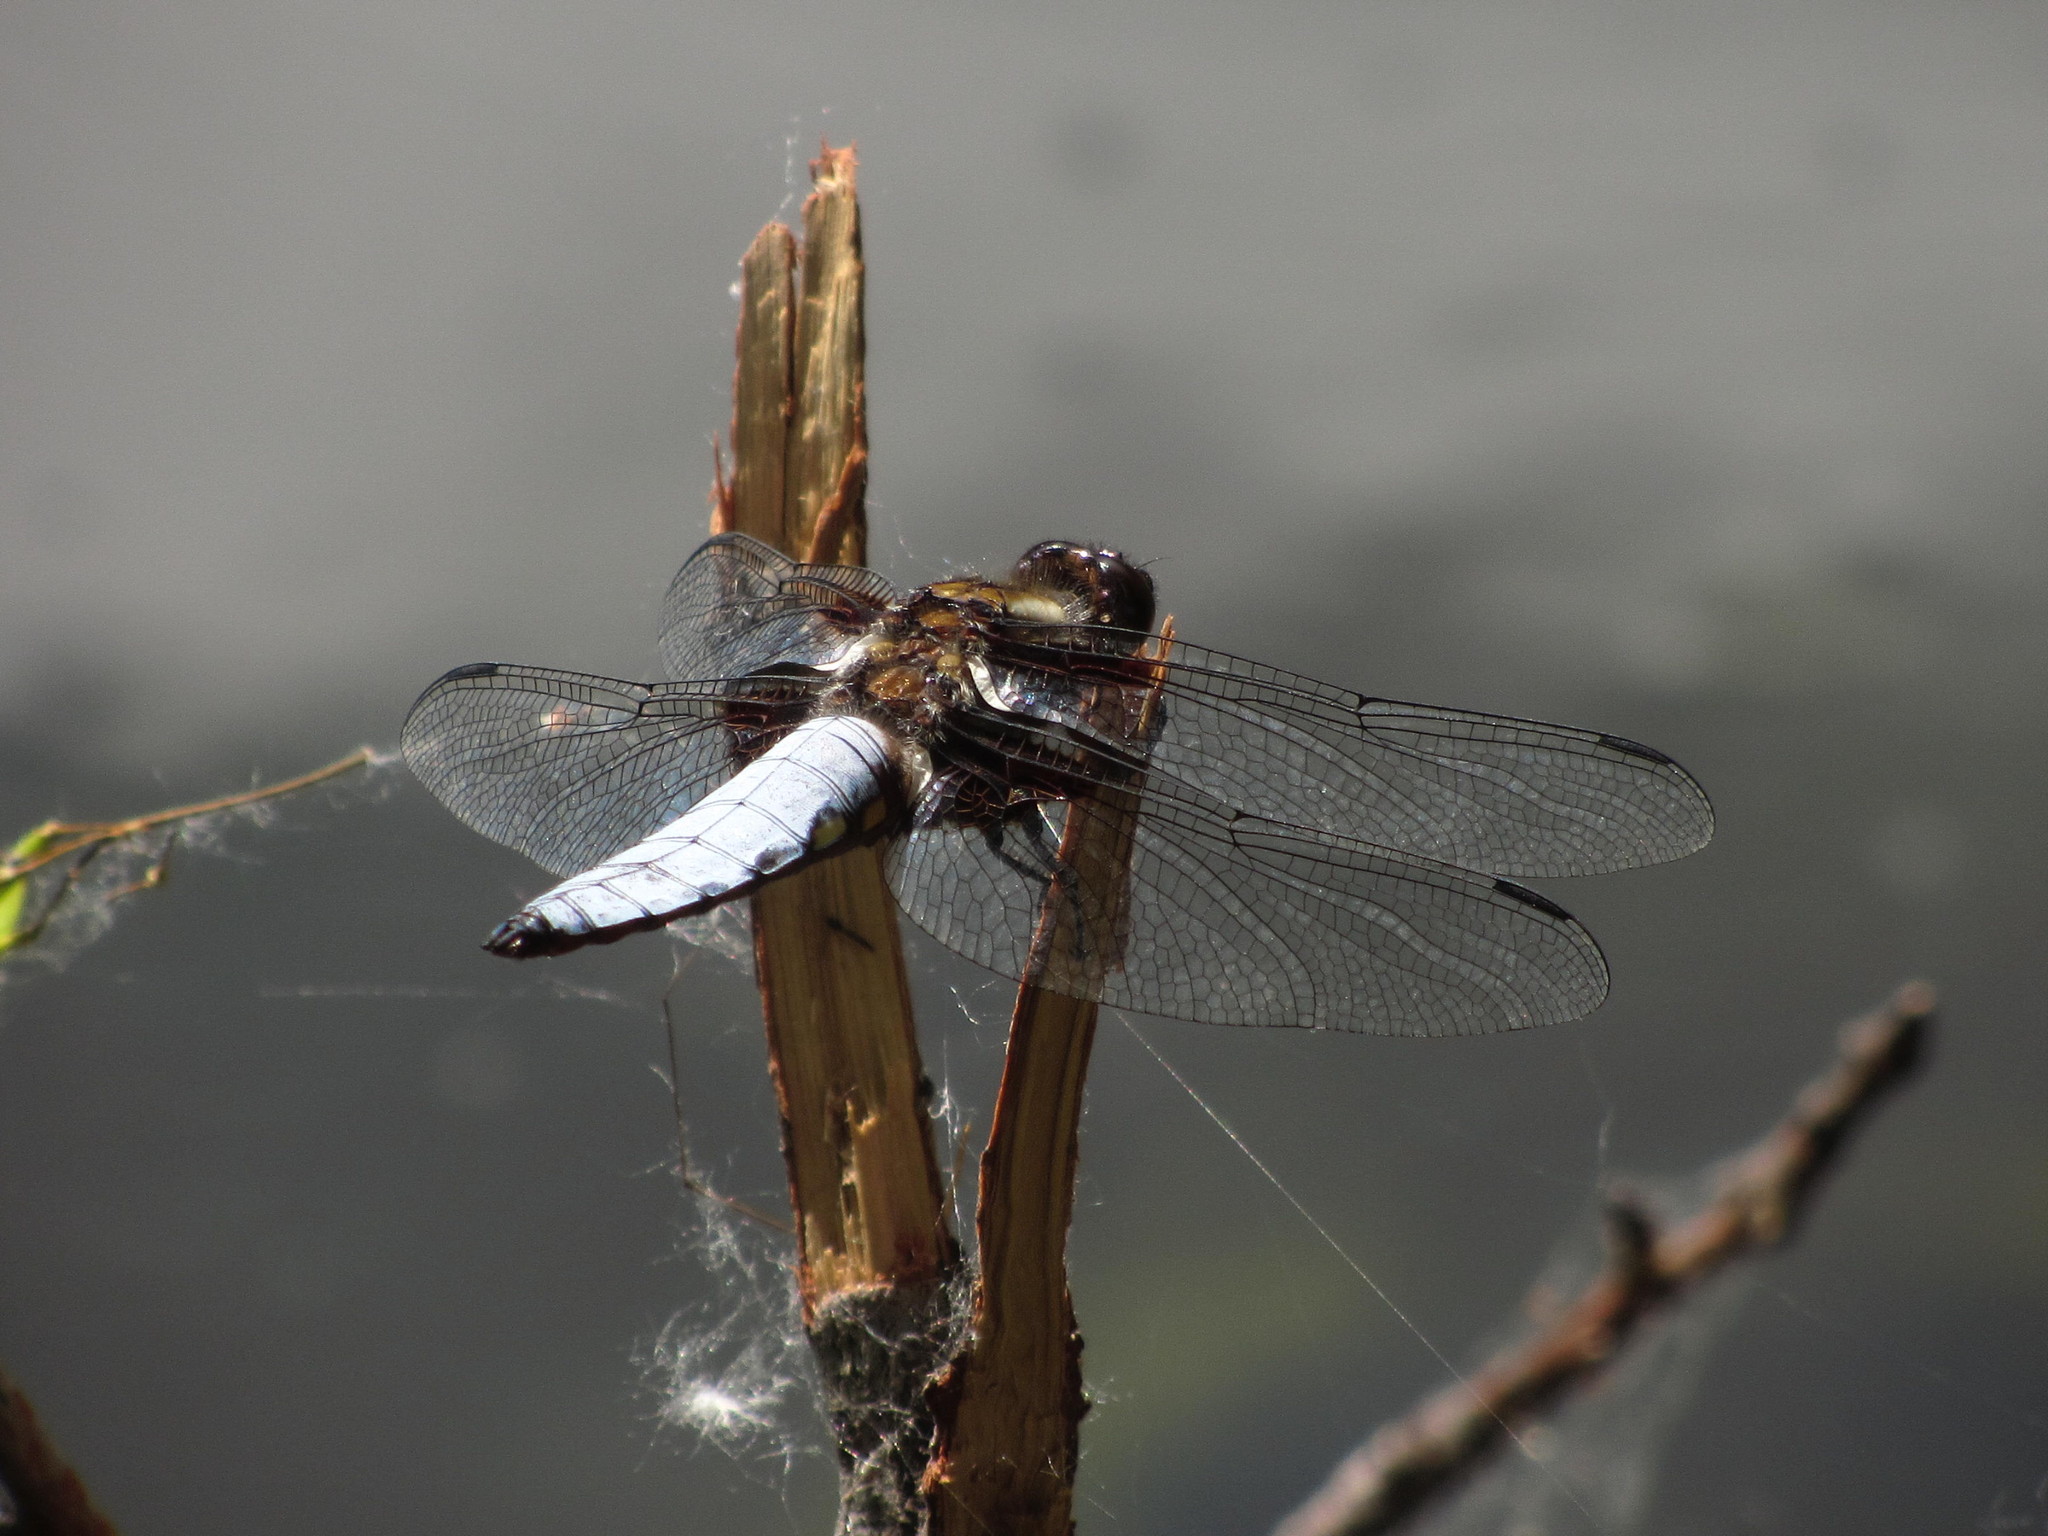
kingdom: Animalia
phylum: Arthropoda
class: Insecta
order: Odonata
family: Libellulidae
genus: Libellula
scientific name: Libellula depressa
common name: Broad-bodied chaser
